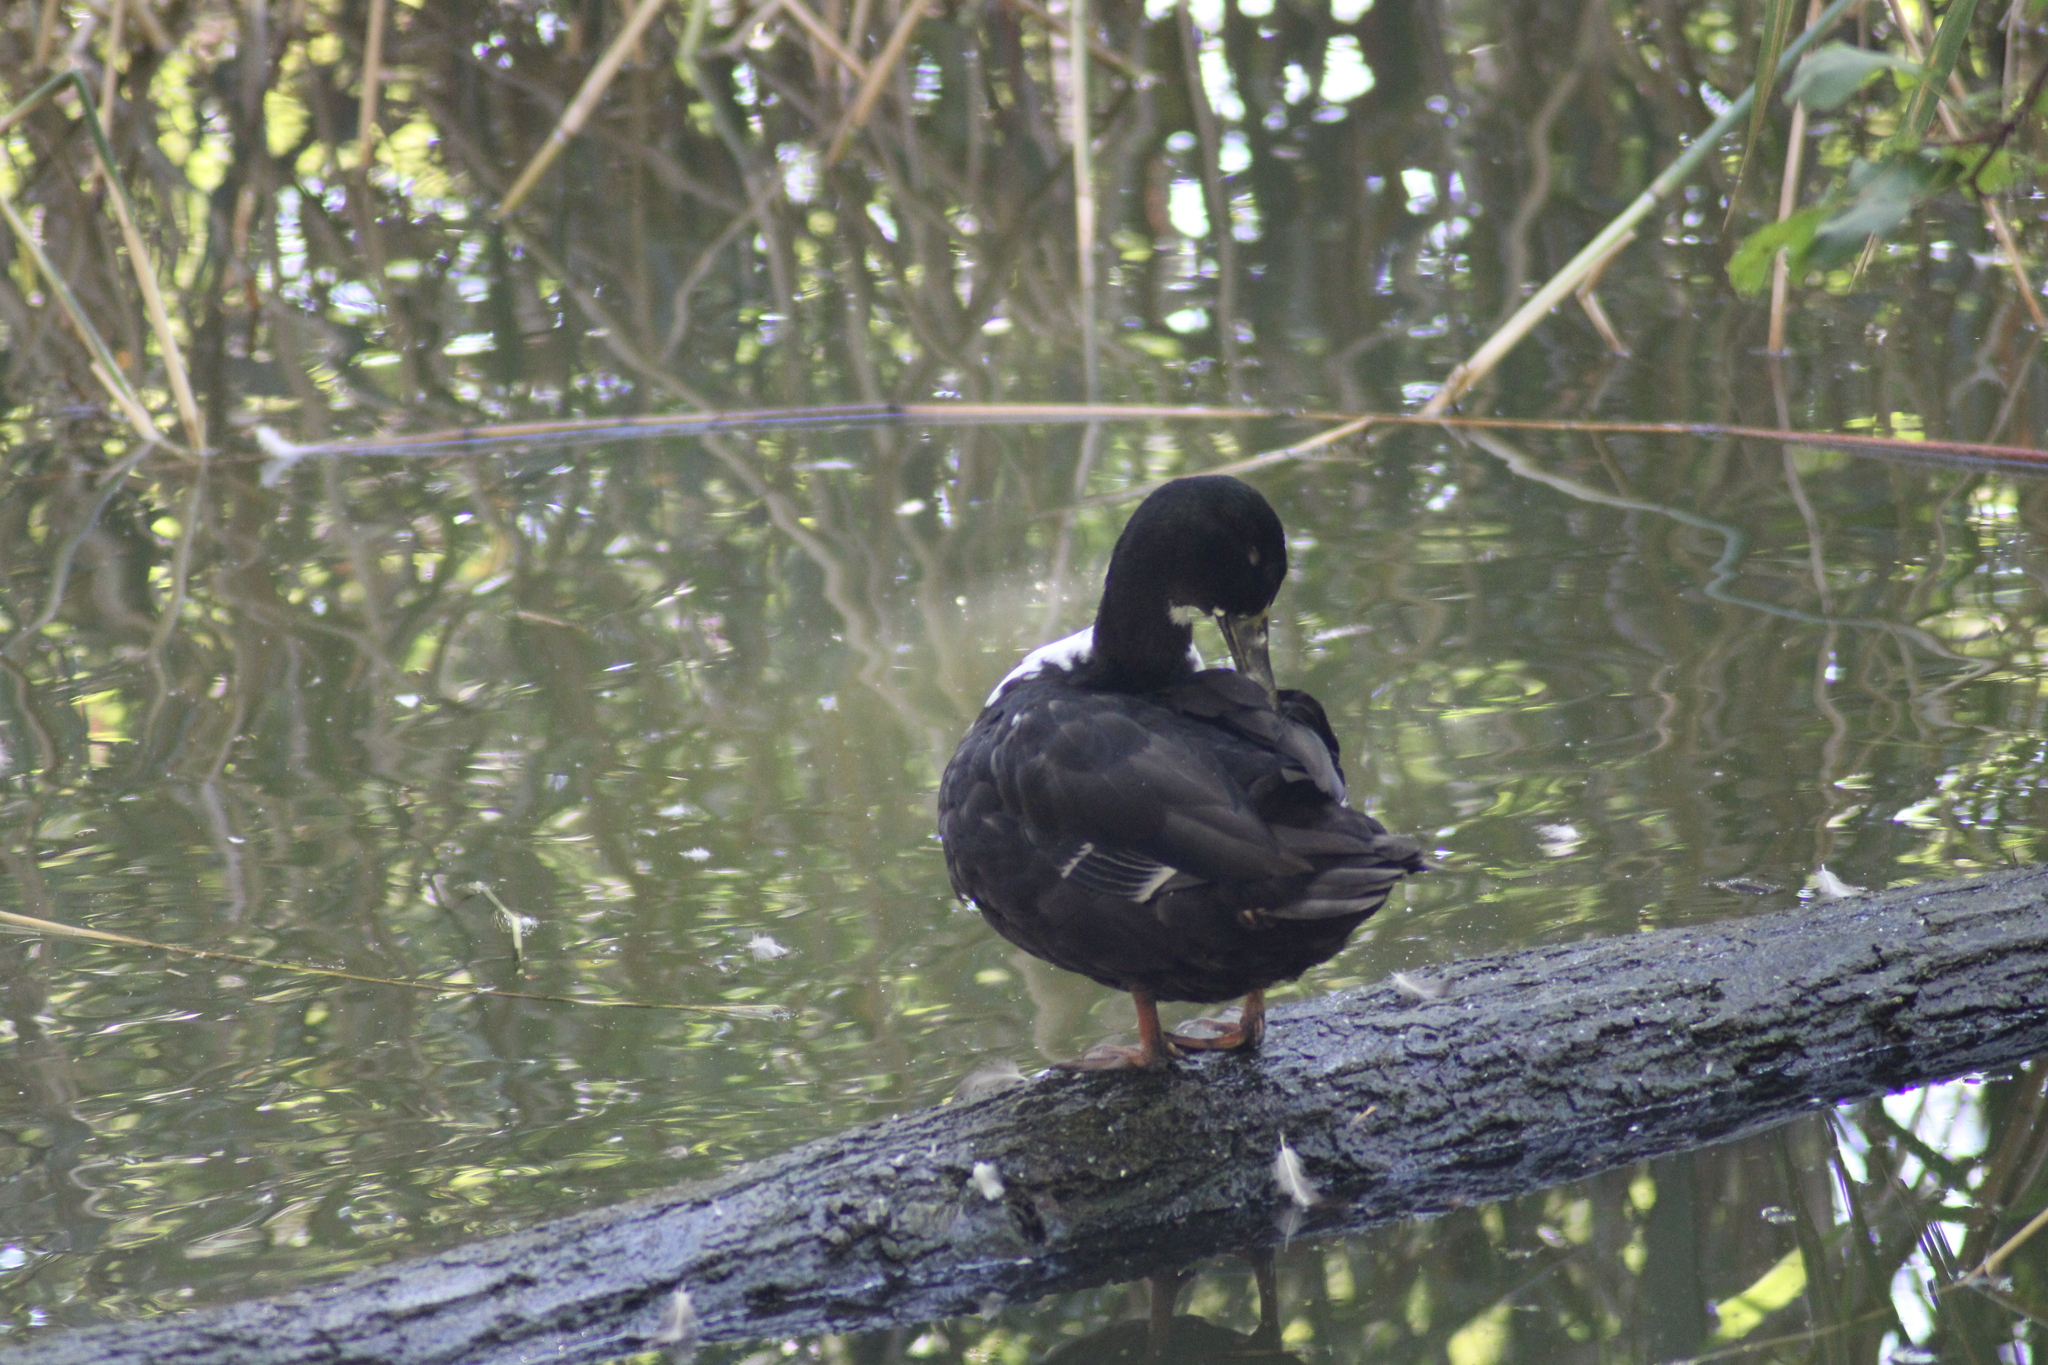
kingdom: Animalia
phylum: Chordata
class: Aves
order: Anseriformes
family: Anatidae
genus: Anas
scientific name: Anas platyrhynchos
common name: Mallard
